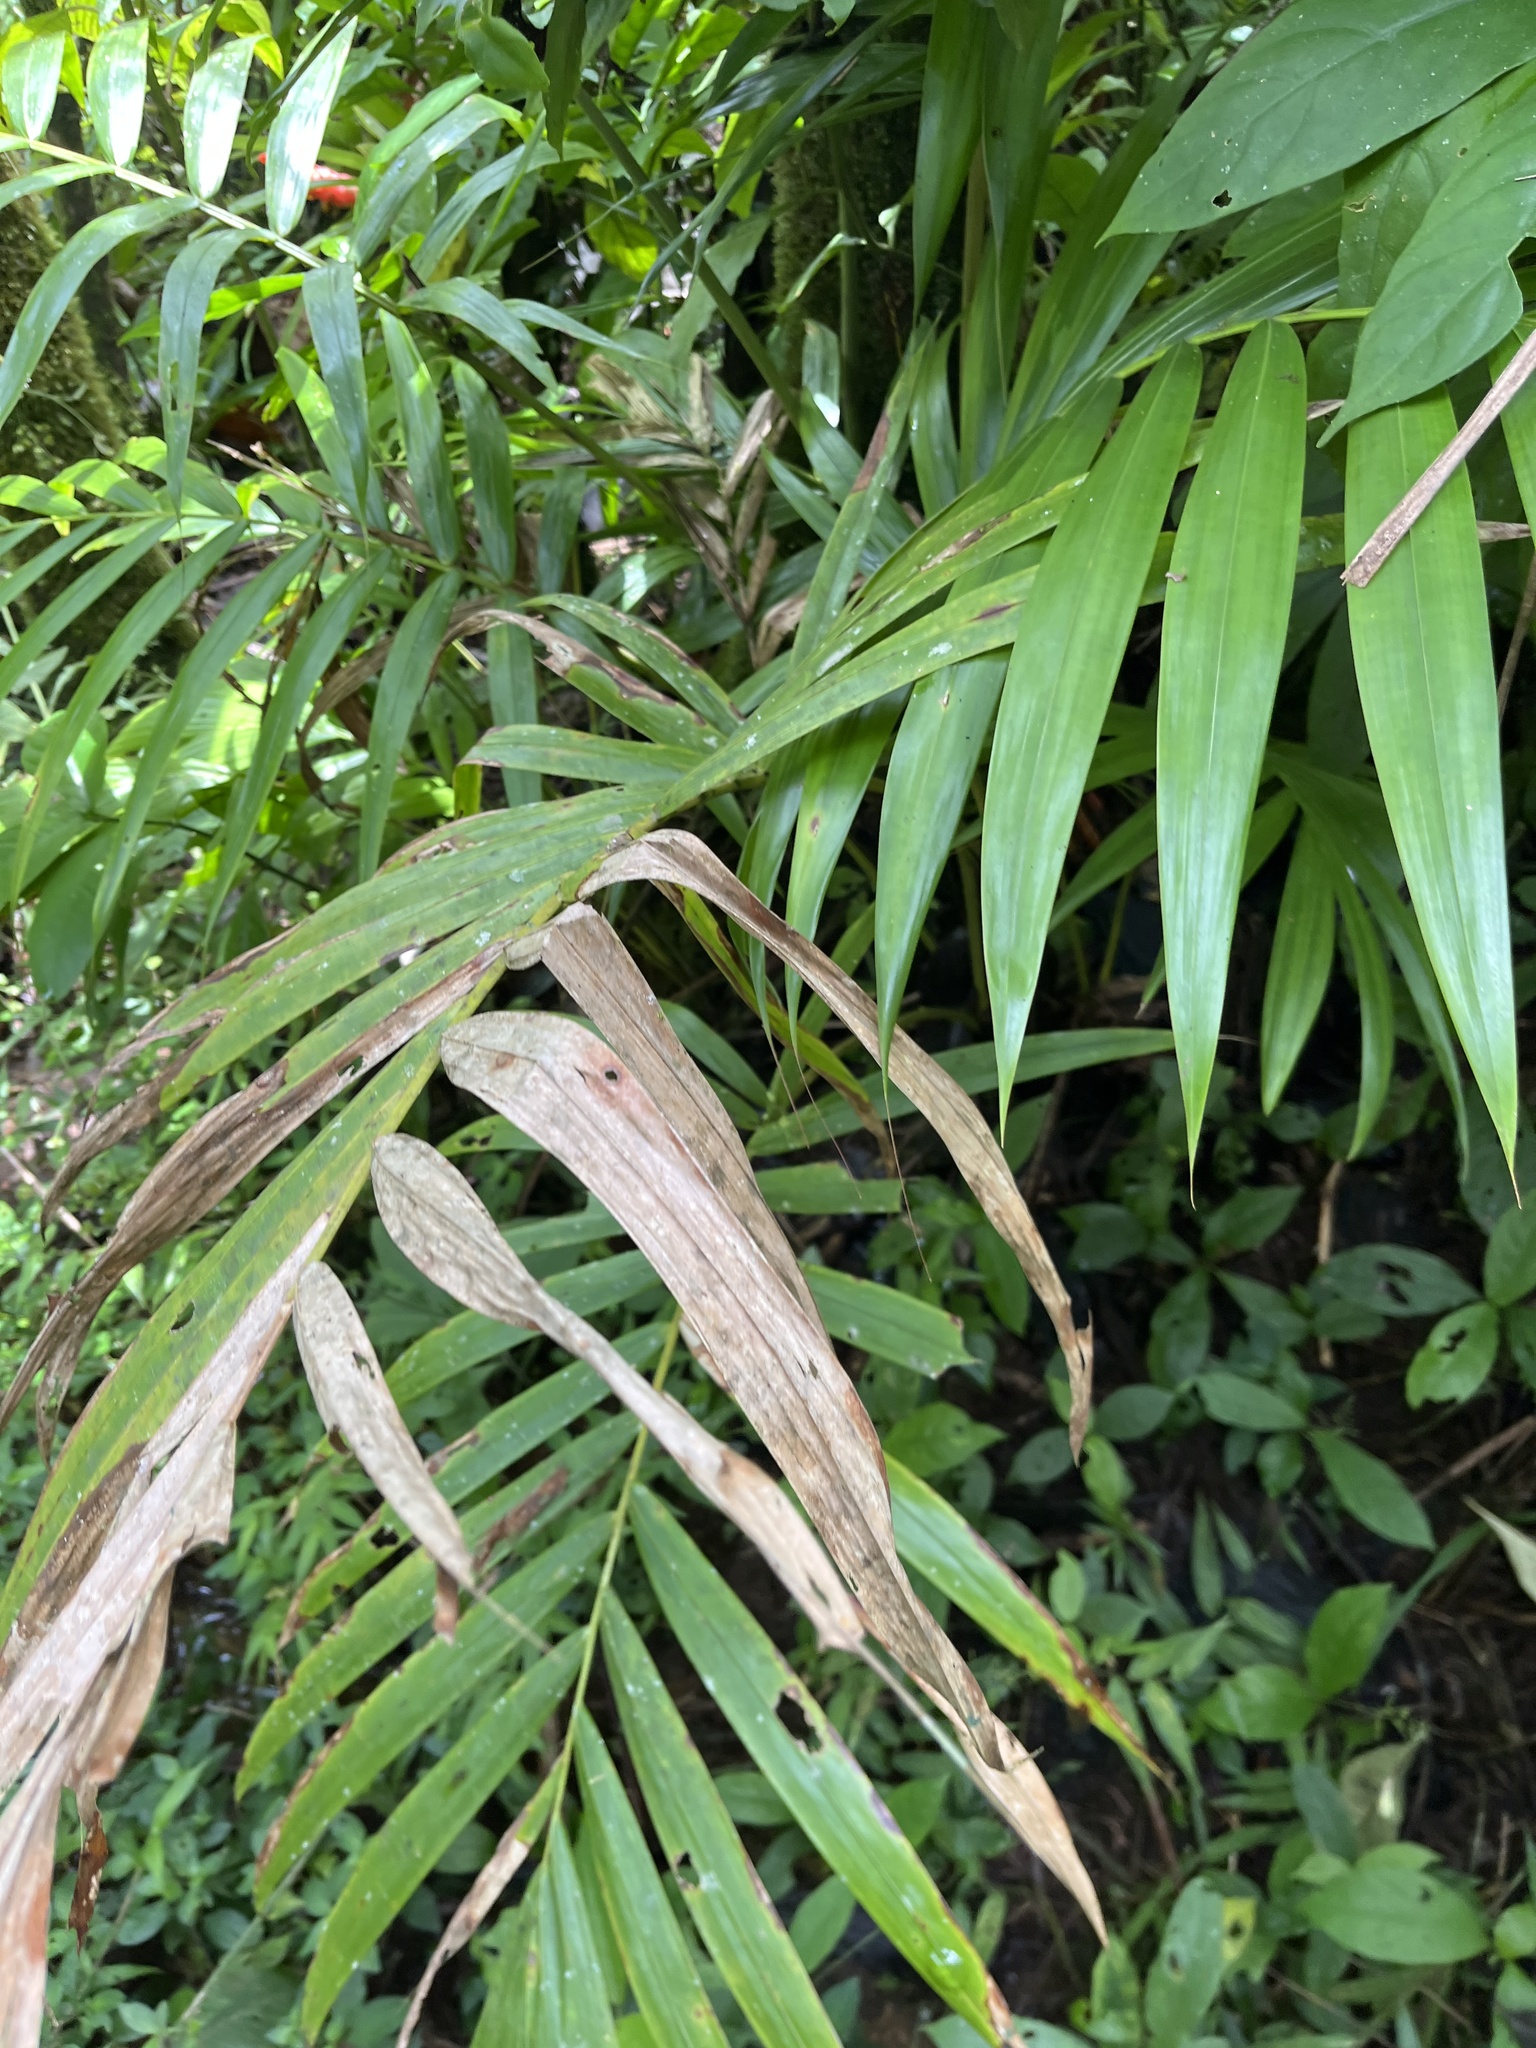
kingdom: Plantae
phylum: Tracheophyta
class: Liliopsida
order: Arecales
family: Arecaceae
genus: Prestoea
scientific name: Prestoea acuminata
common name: Sierran palm
